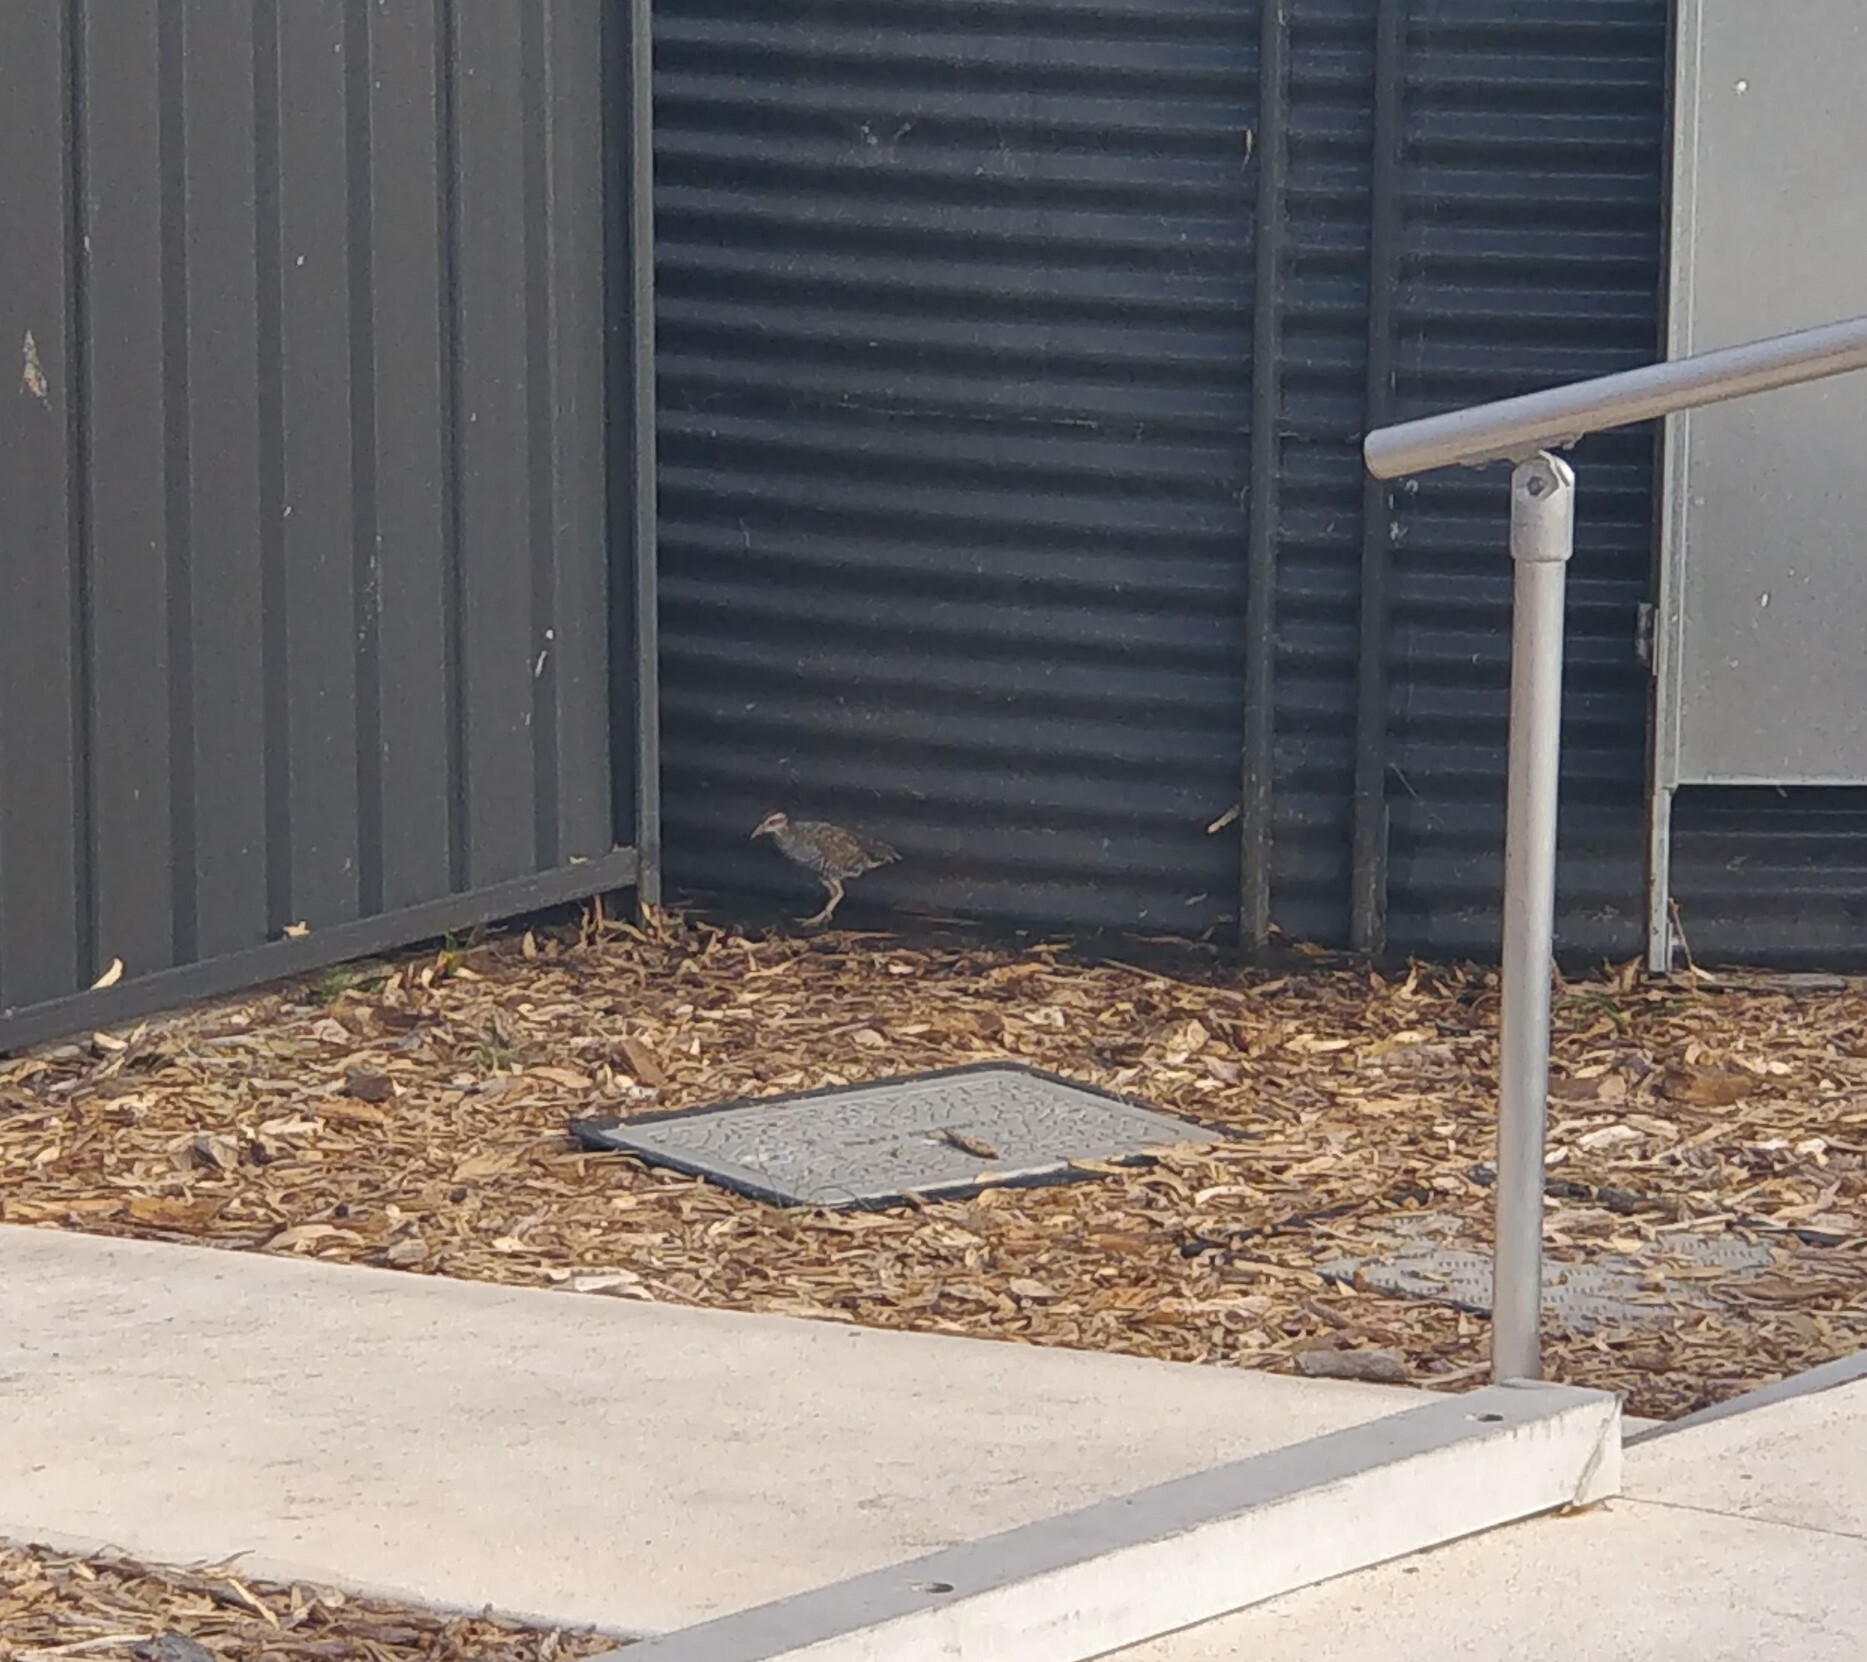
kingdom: Animalia
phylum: Chordata
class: Aves
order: Gruiformes
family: Rallidae
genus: Gallirallus
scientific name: Gallirallus philippensis
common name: Buff-banded rail
